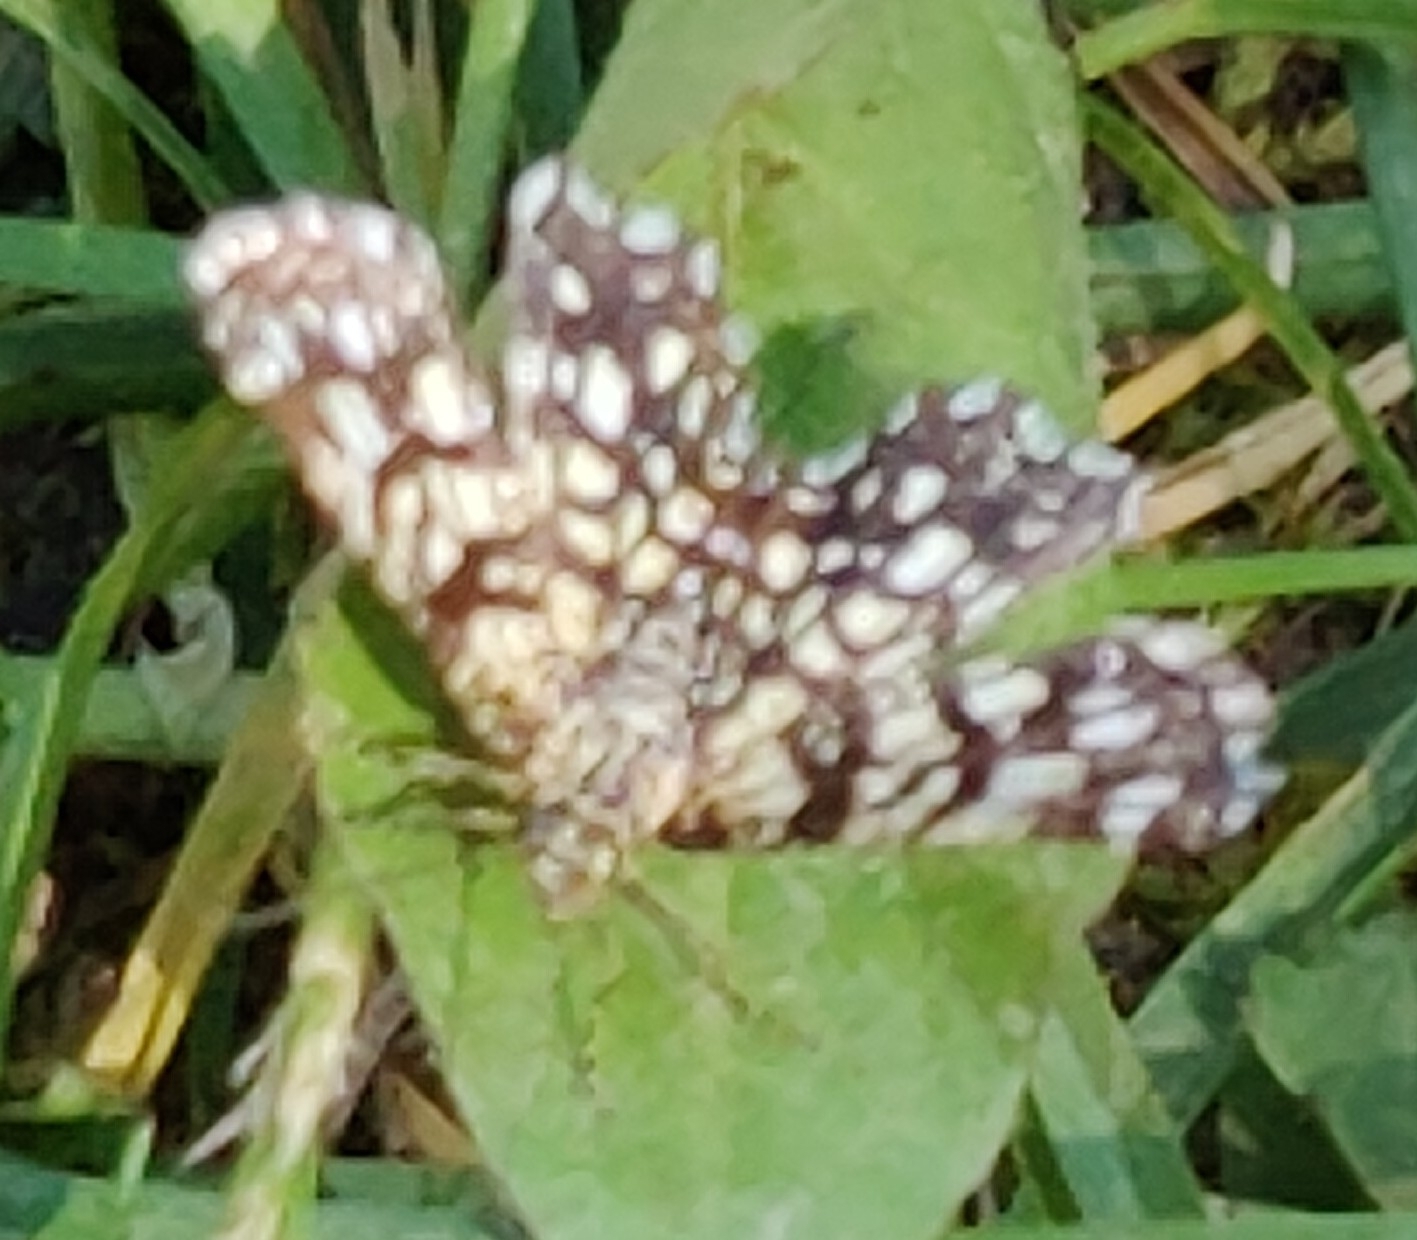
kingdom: Animalia
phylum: Arthropoda
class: Insecta
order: Lepidoptera
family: Geometridae
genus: Chiasmia
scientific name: Chiasmia clathrata
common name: Latticed heath
